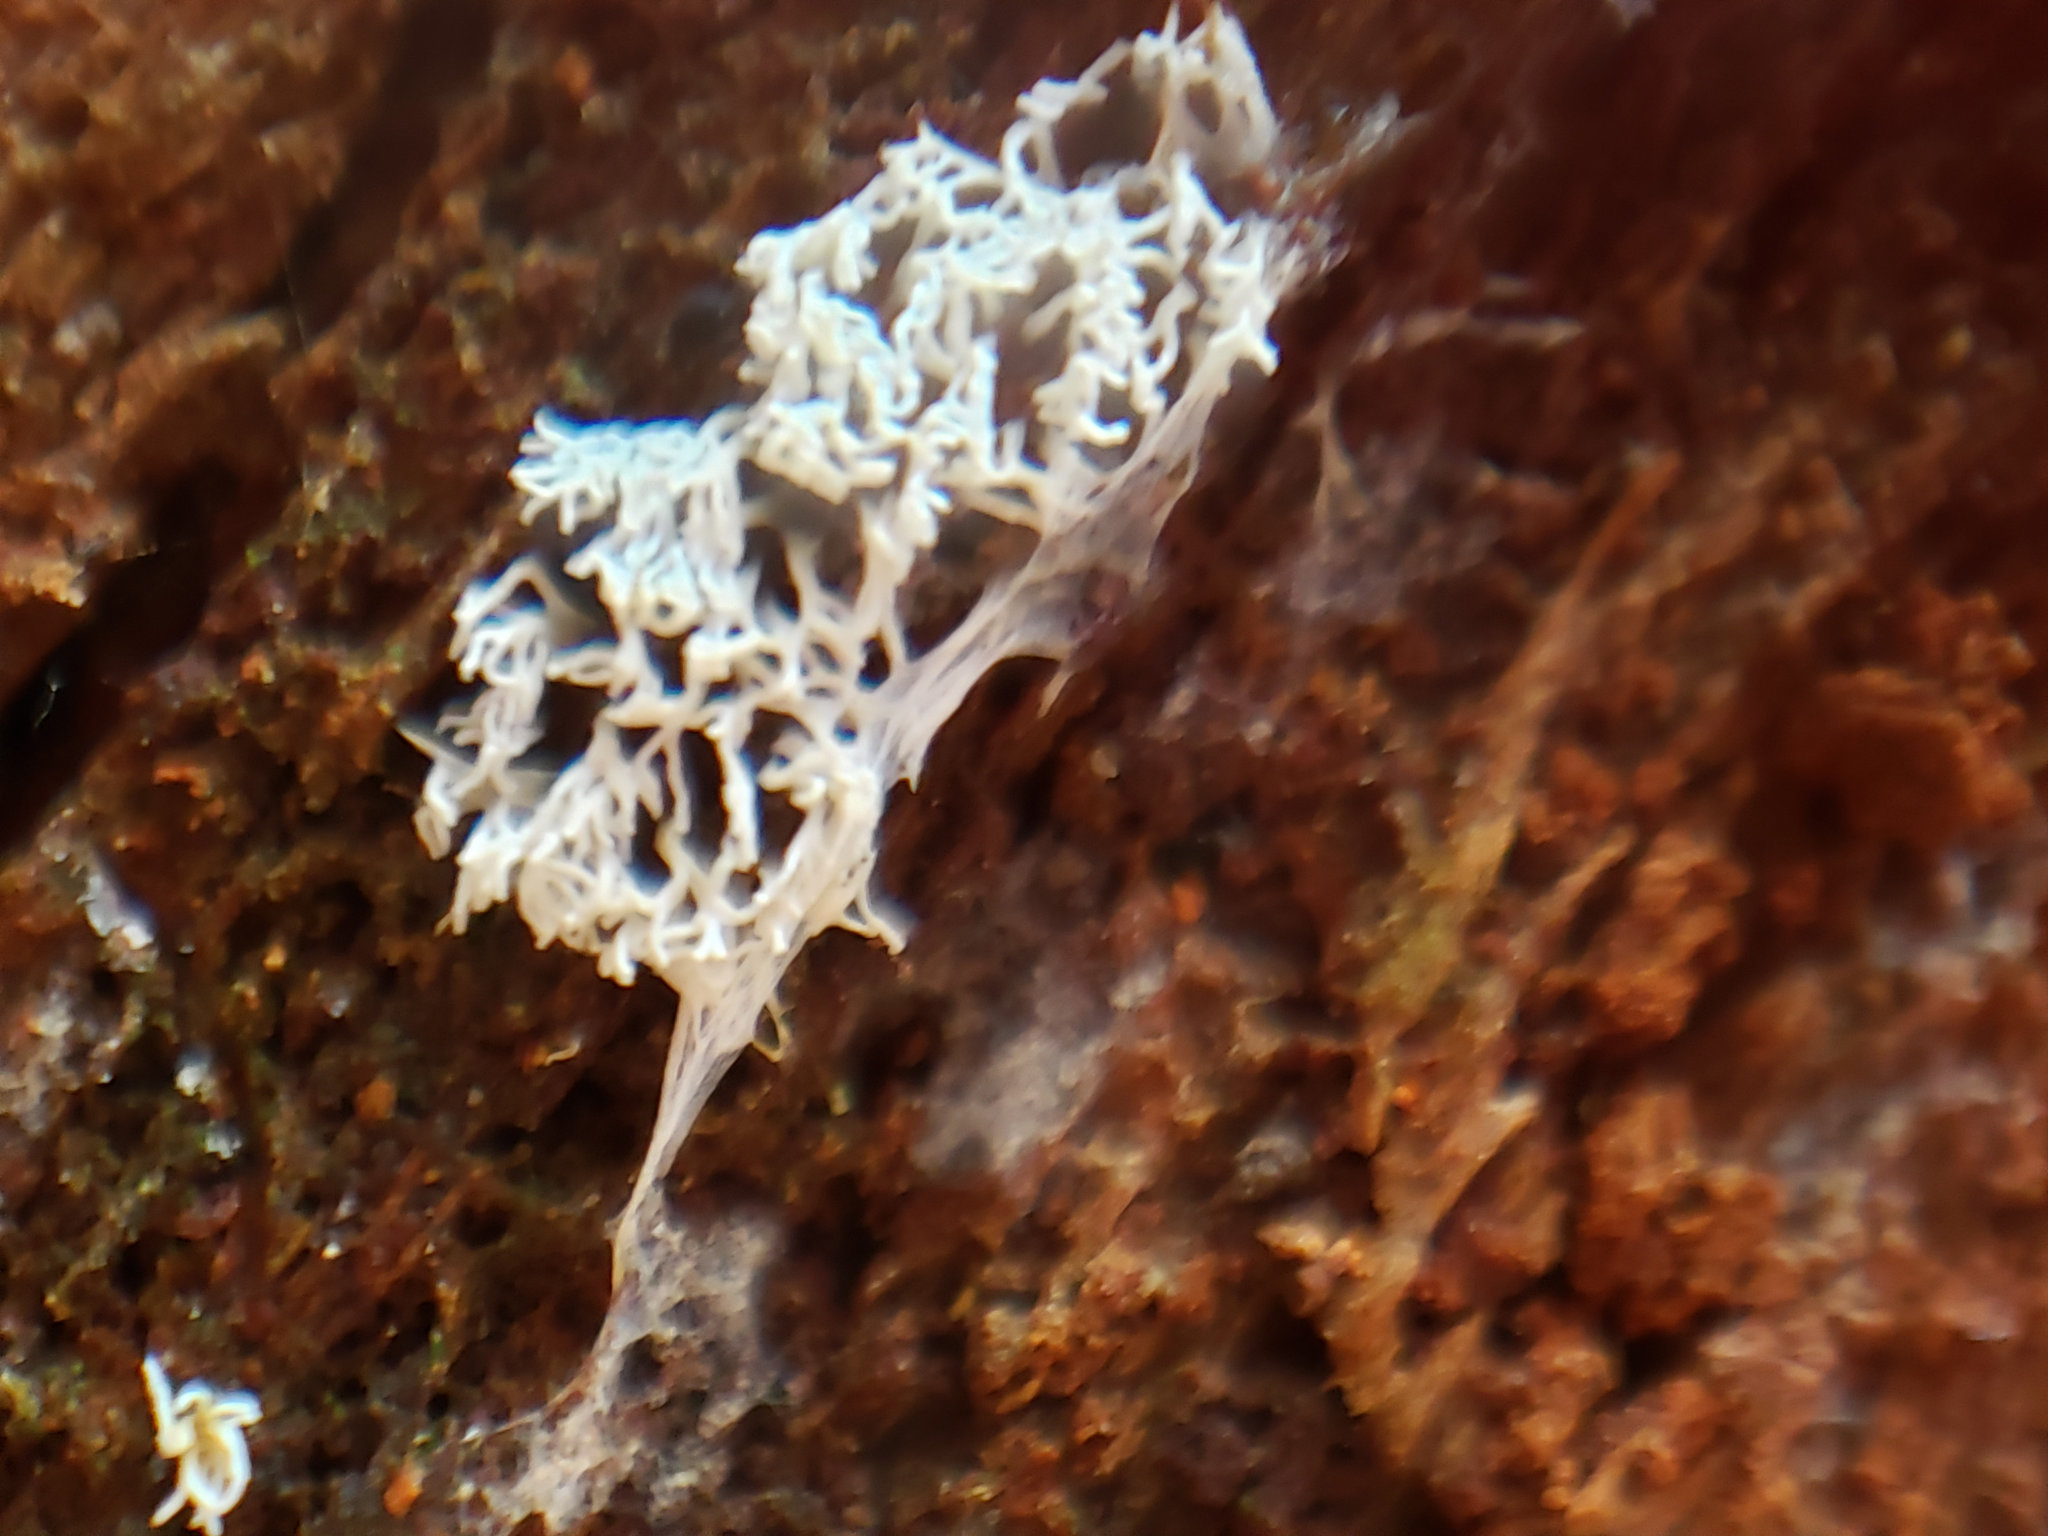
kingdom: Protozoa
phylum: Mycetozoa
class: Protosteliomycetes
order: Ceratiomyxales
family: Ceratiomyxaceae
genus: Ceratiomyxa
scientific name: Ceratiomyxa fruticulosa
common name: Honeycomb coral slime mold
